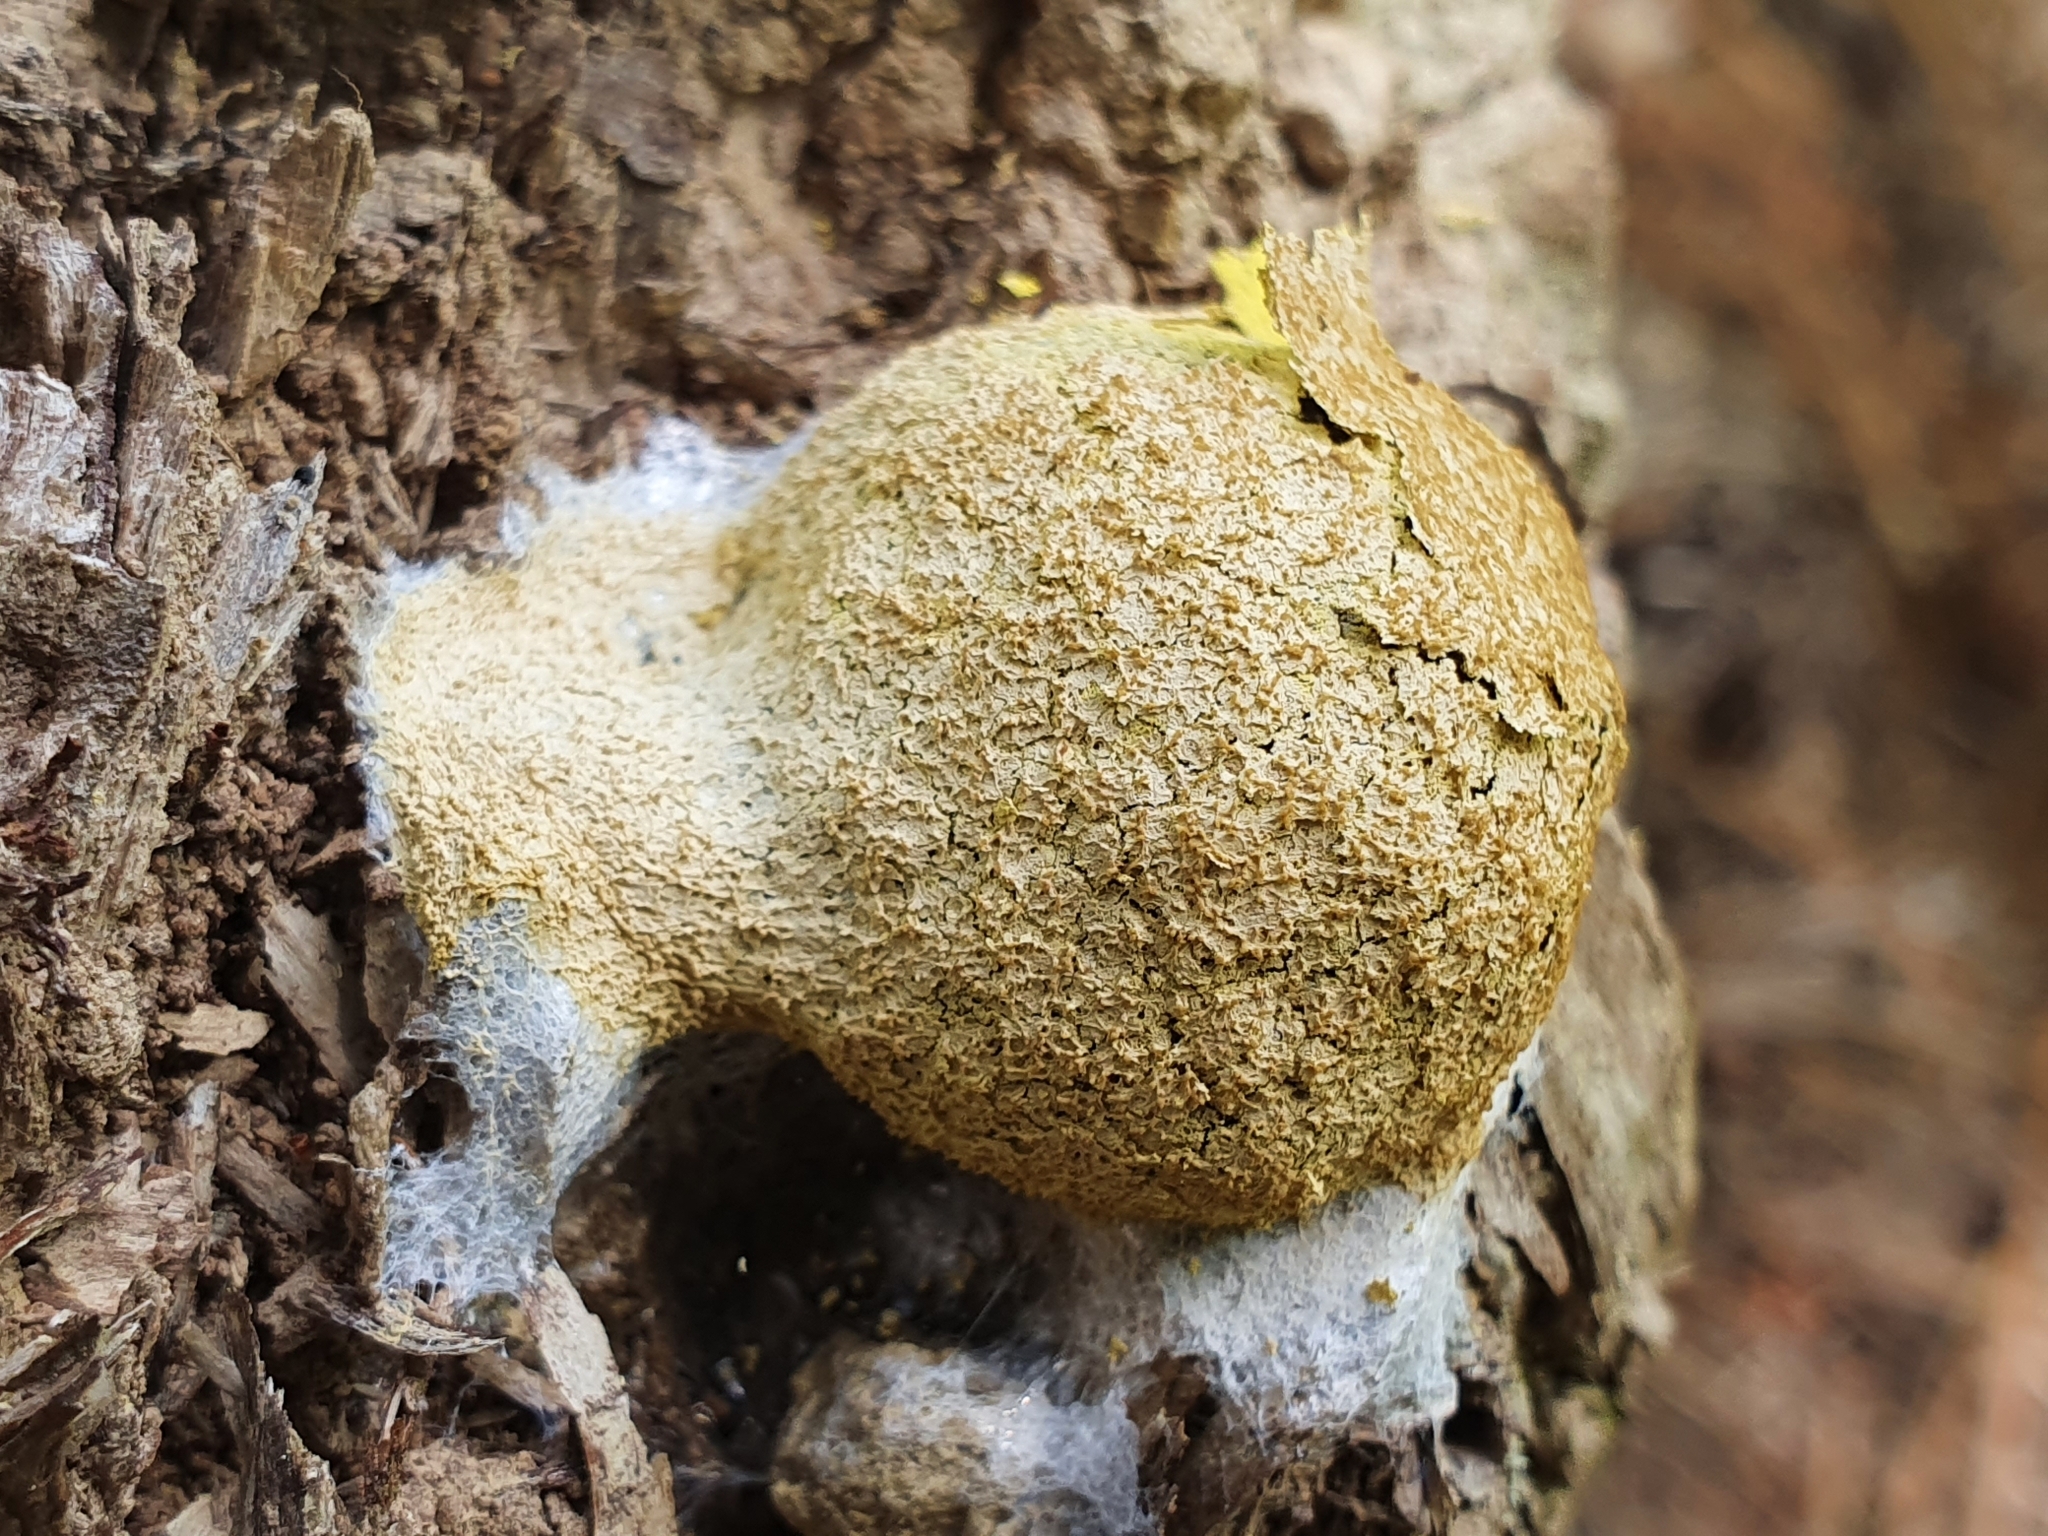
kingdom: Protozoa
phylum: Mycetozoa
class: Myxomycetes
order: Physarales
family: Physaraceae
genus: Fuligo
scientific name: Fuligo septica
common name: Dog vomit slime mold
